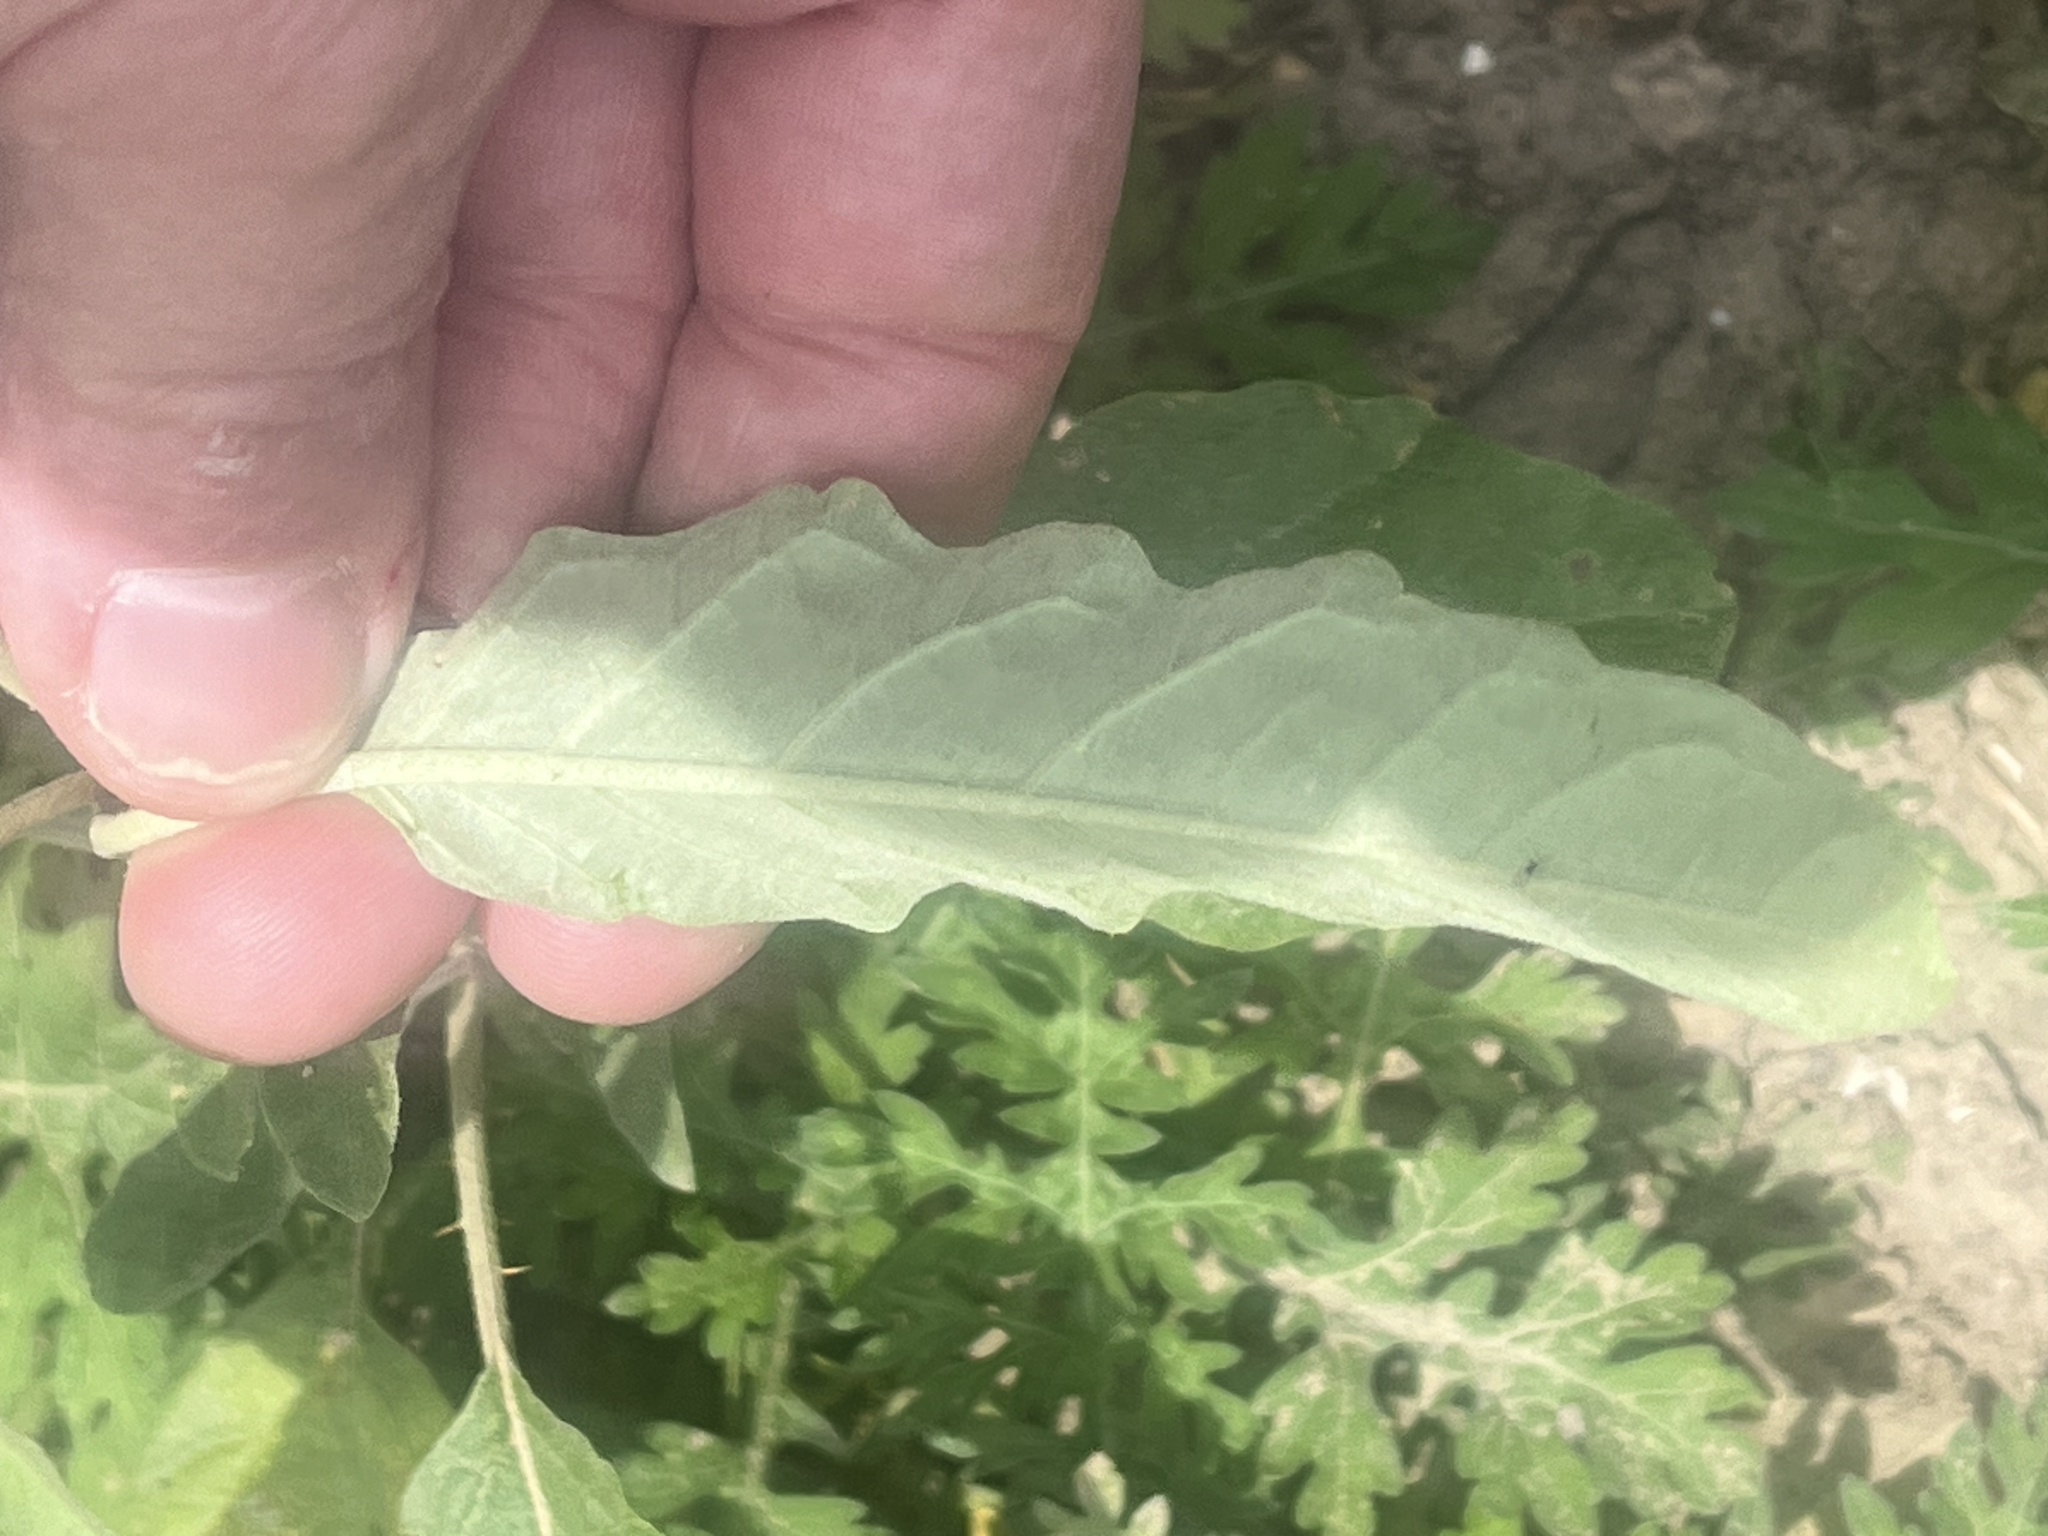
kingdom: Plantae
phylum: Tracheophyta
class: Magnoliopsida
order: Solanales
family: Solanaceae
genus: Solanum
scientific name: Solanum elaeagnifolium
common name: Silverleaf nightshade
